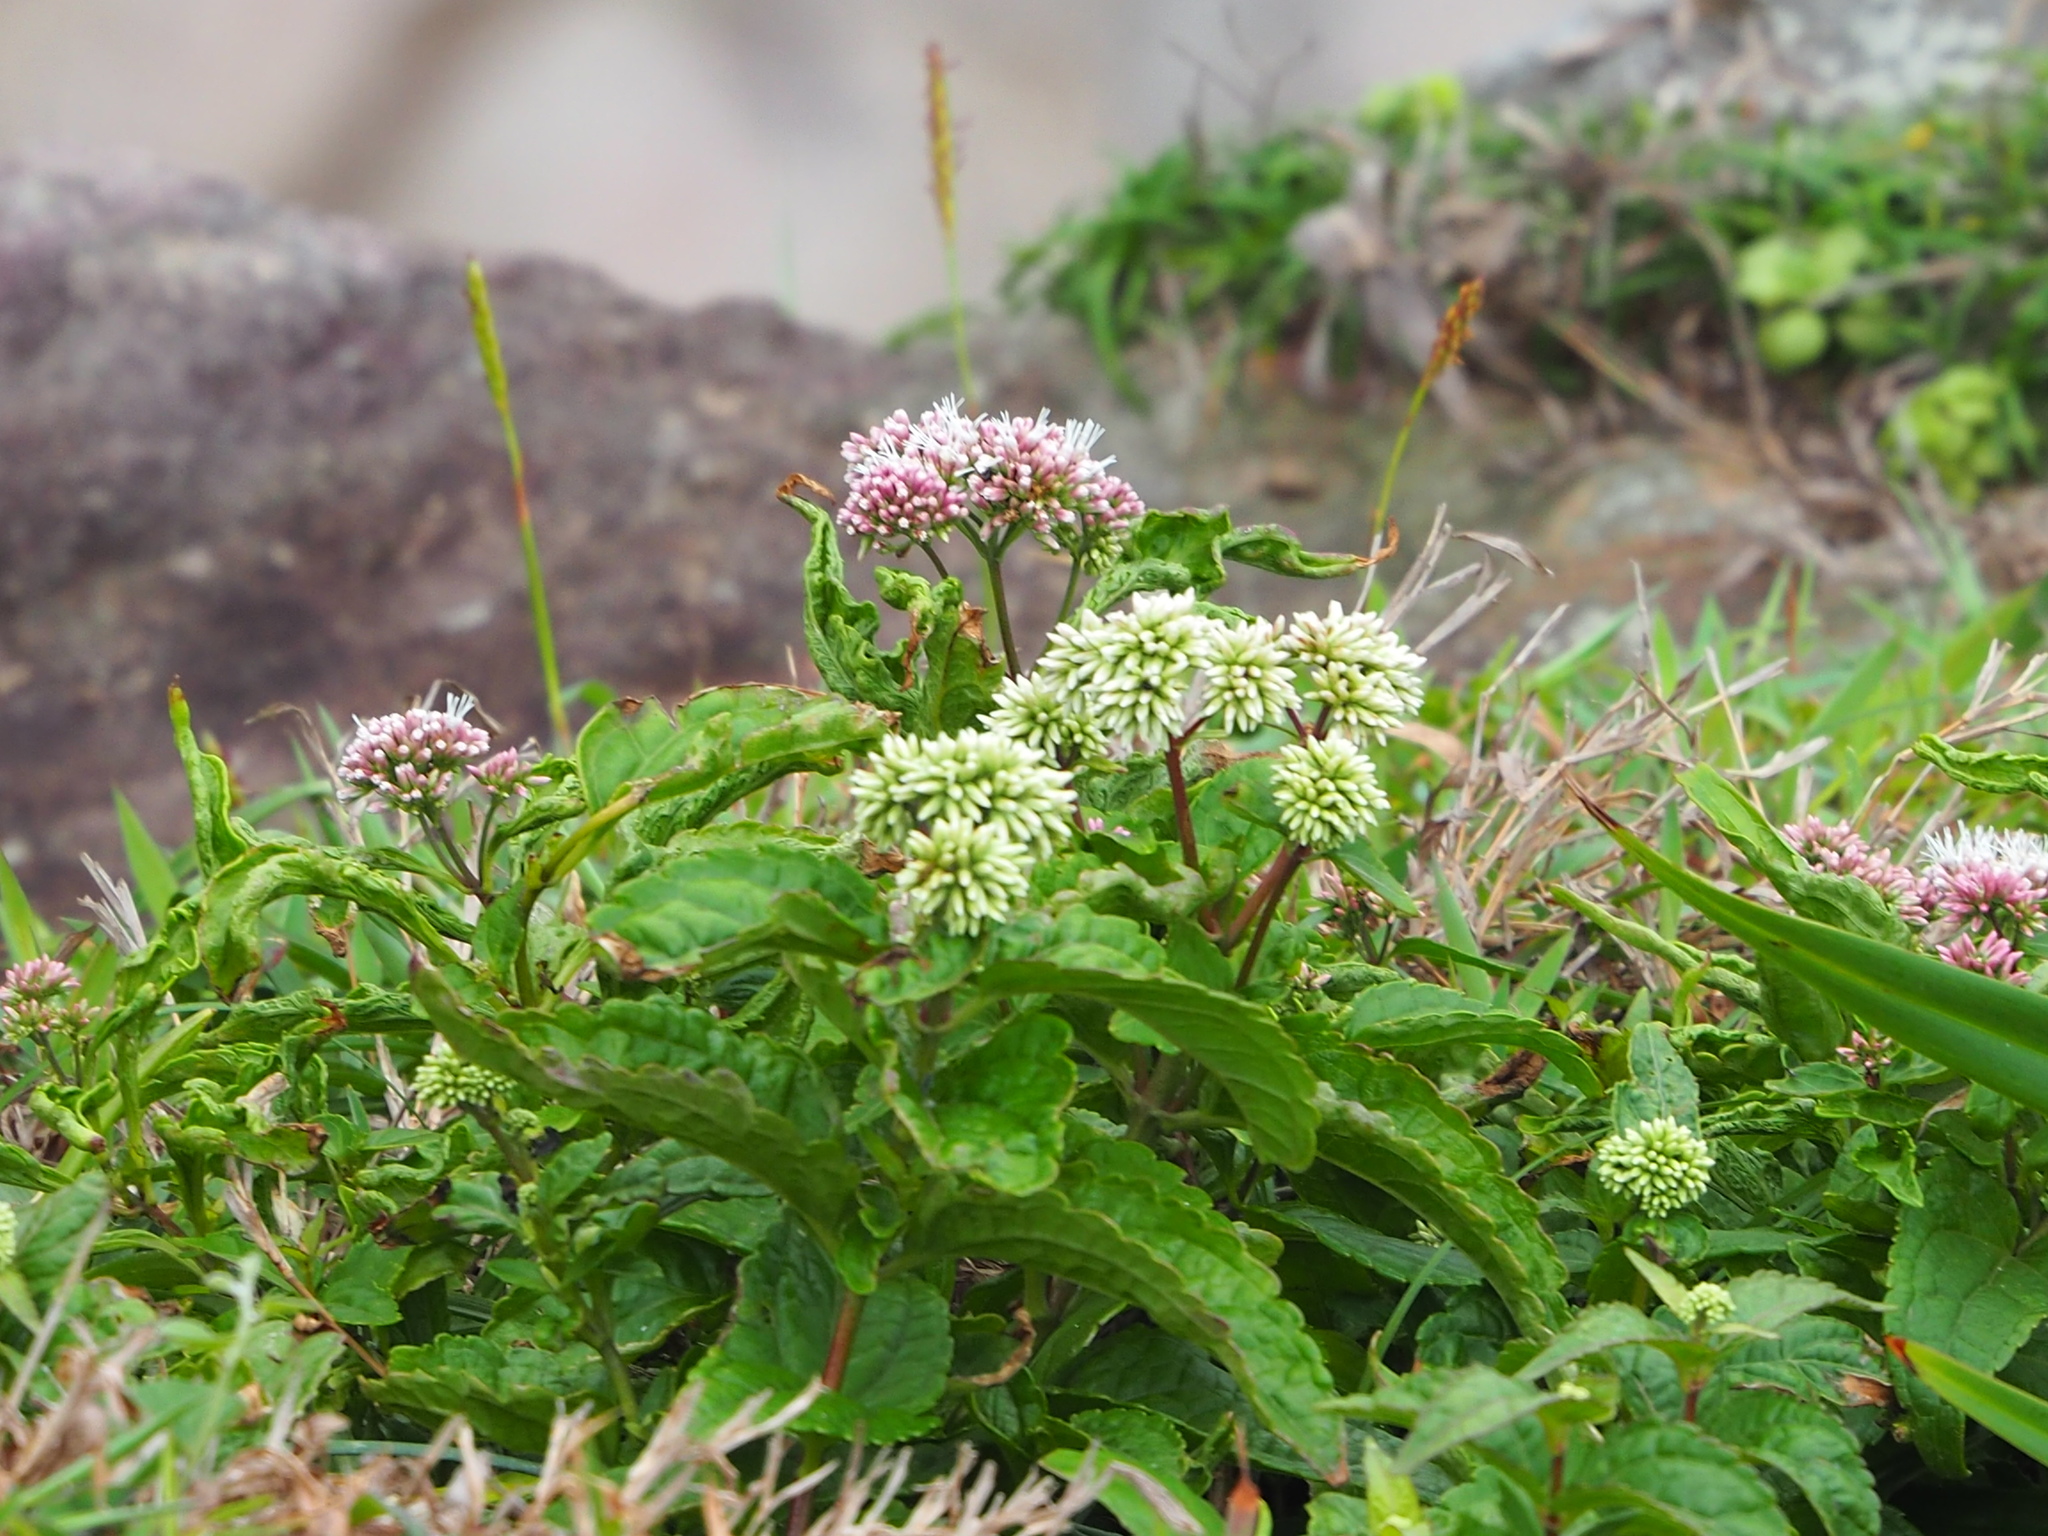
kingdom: Plantae
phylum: Tracheophyta
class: Magnoliopsida
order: Asterales
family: Asteraceae
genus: Eupatorium
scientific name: Eupatorium luchuense
